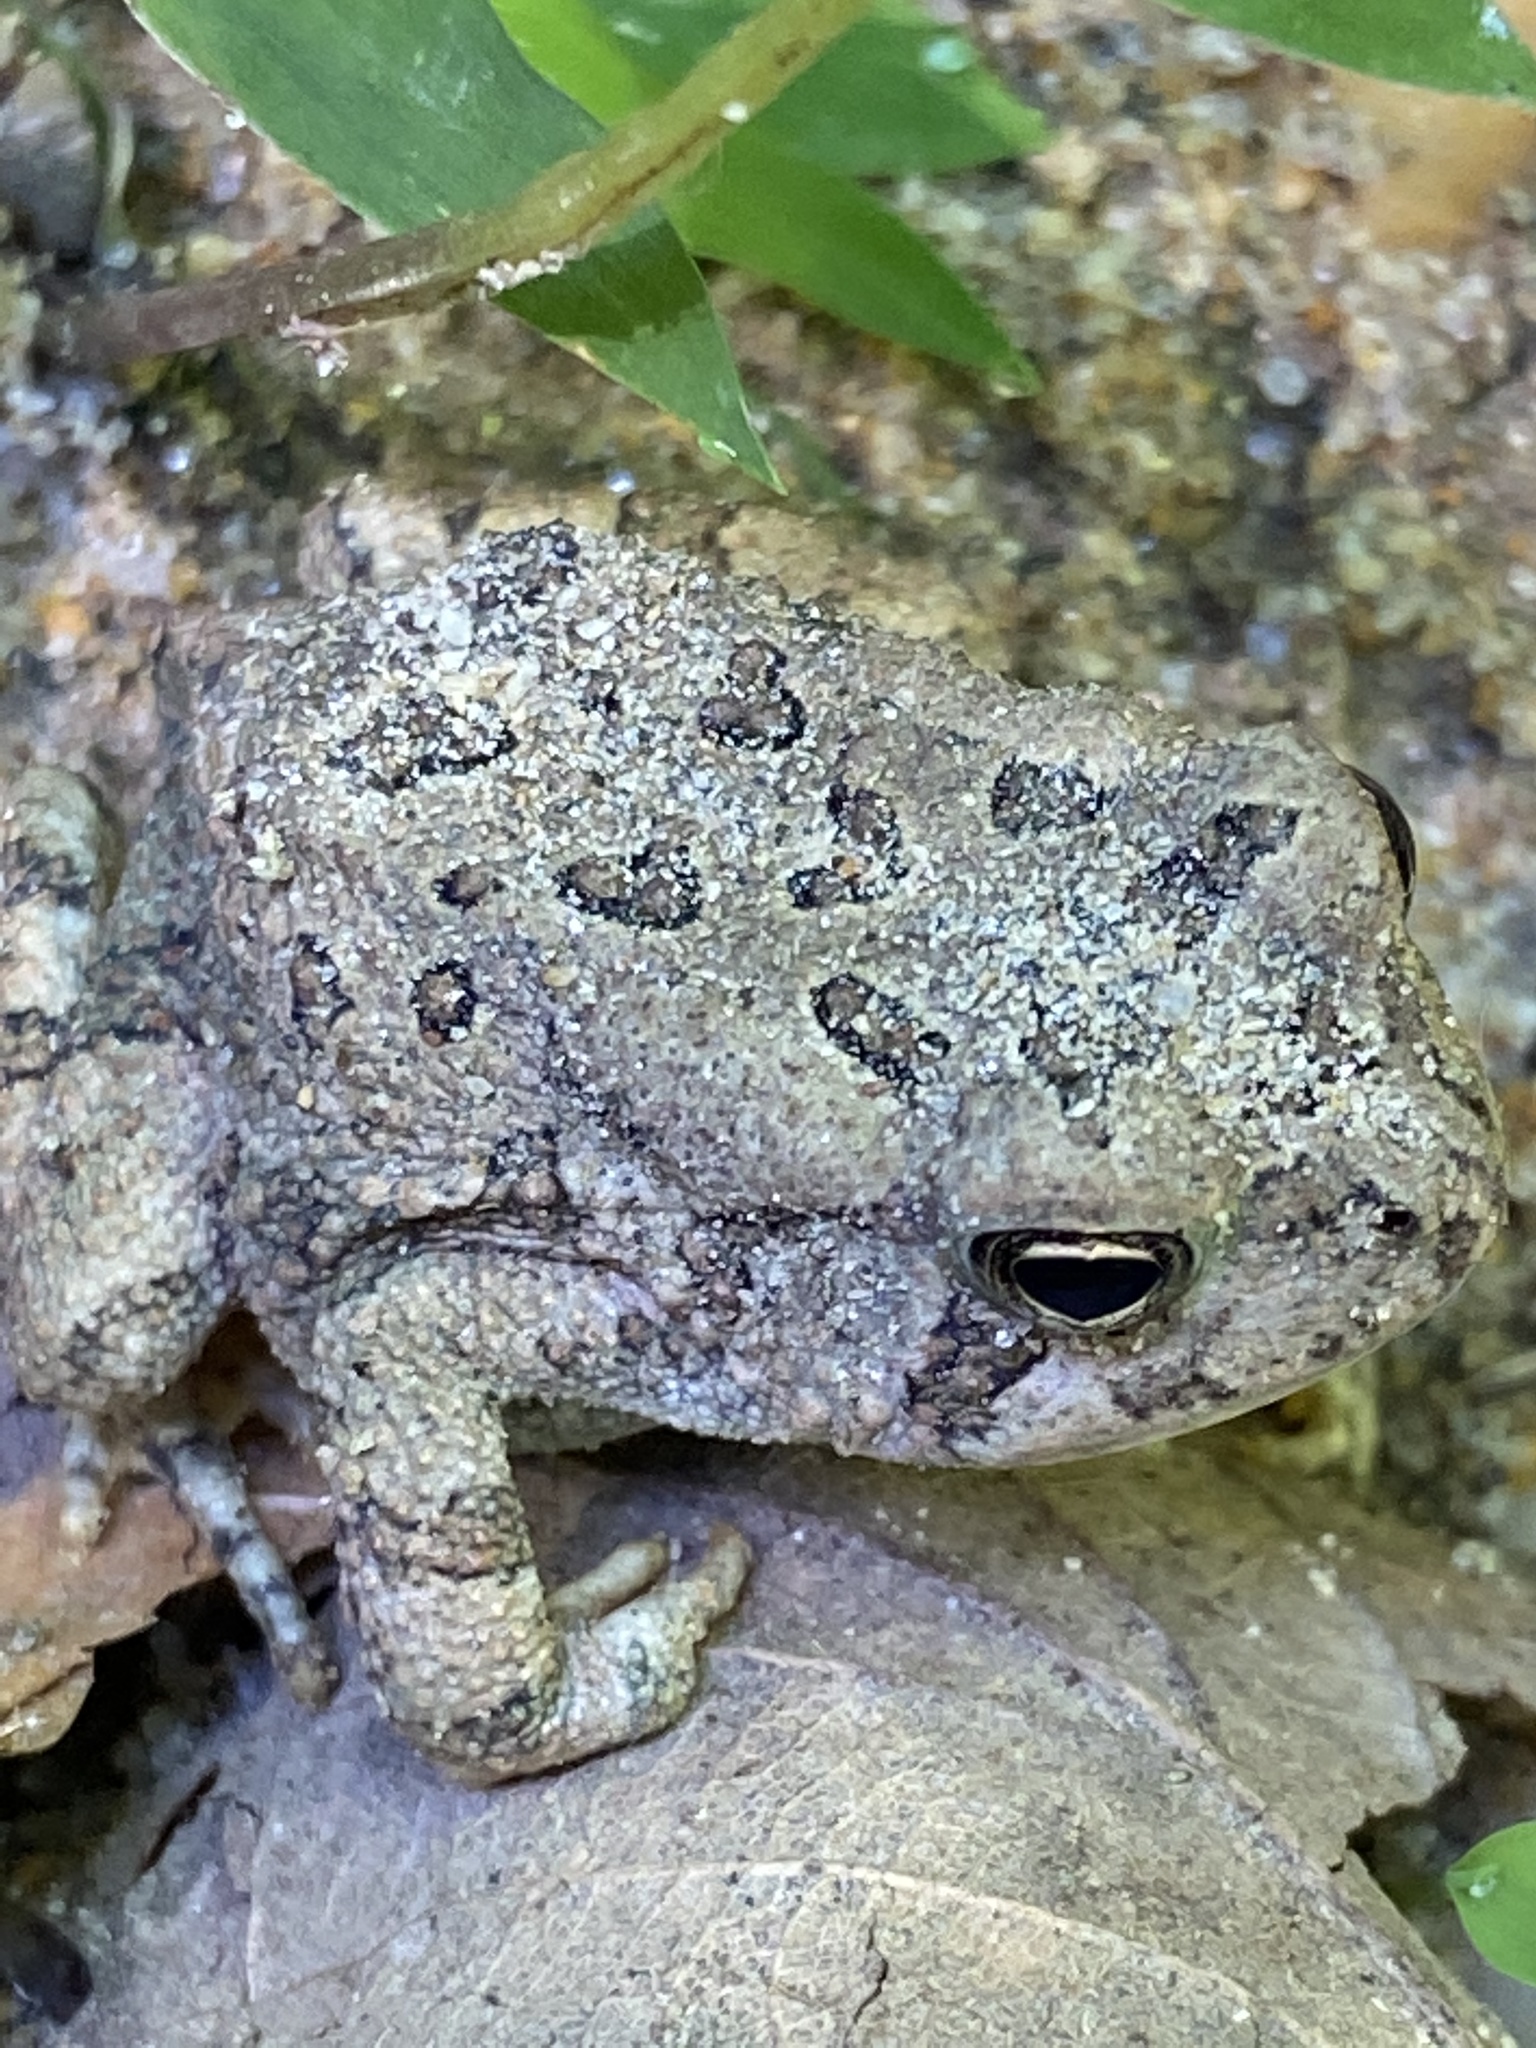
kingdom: Animalia
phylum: Chordata
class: Amphibia
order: Anura
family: Bufonidae
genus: Anaxyrus
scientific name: Anaxyrus fowleri
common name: Fowler's toad
